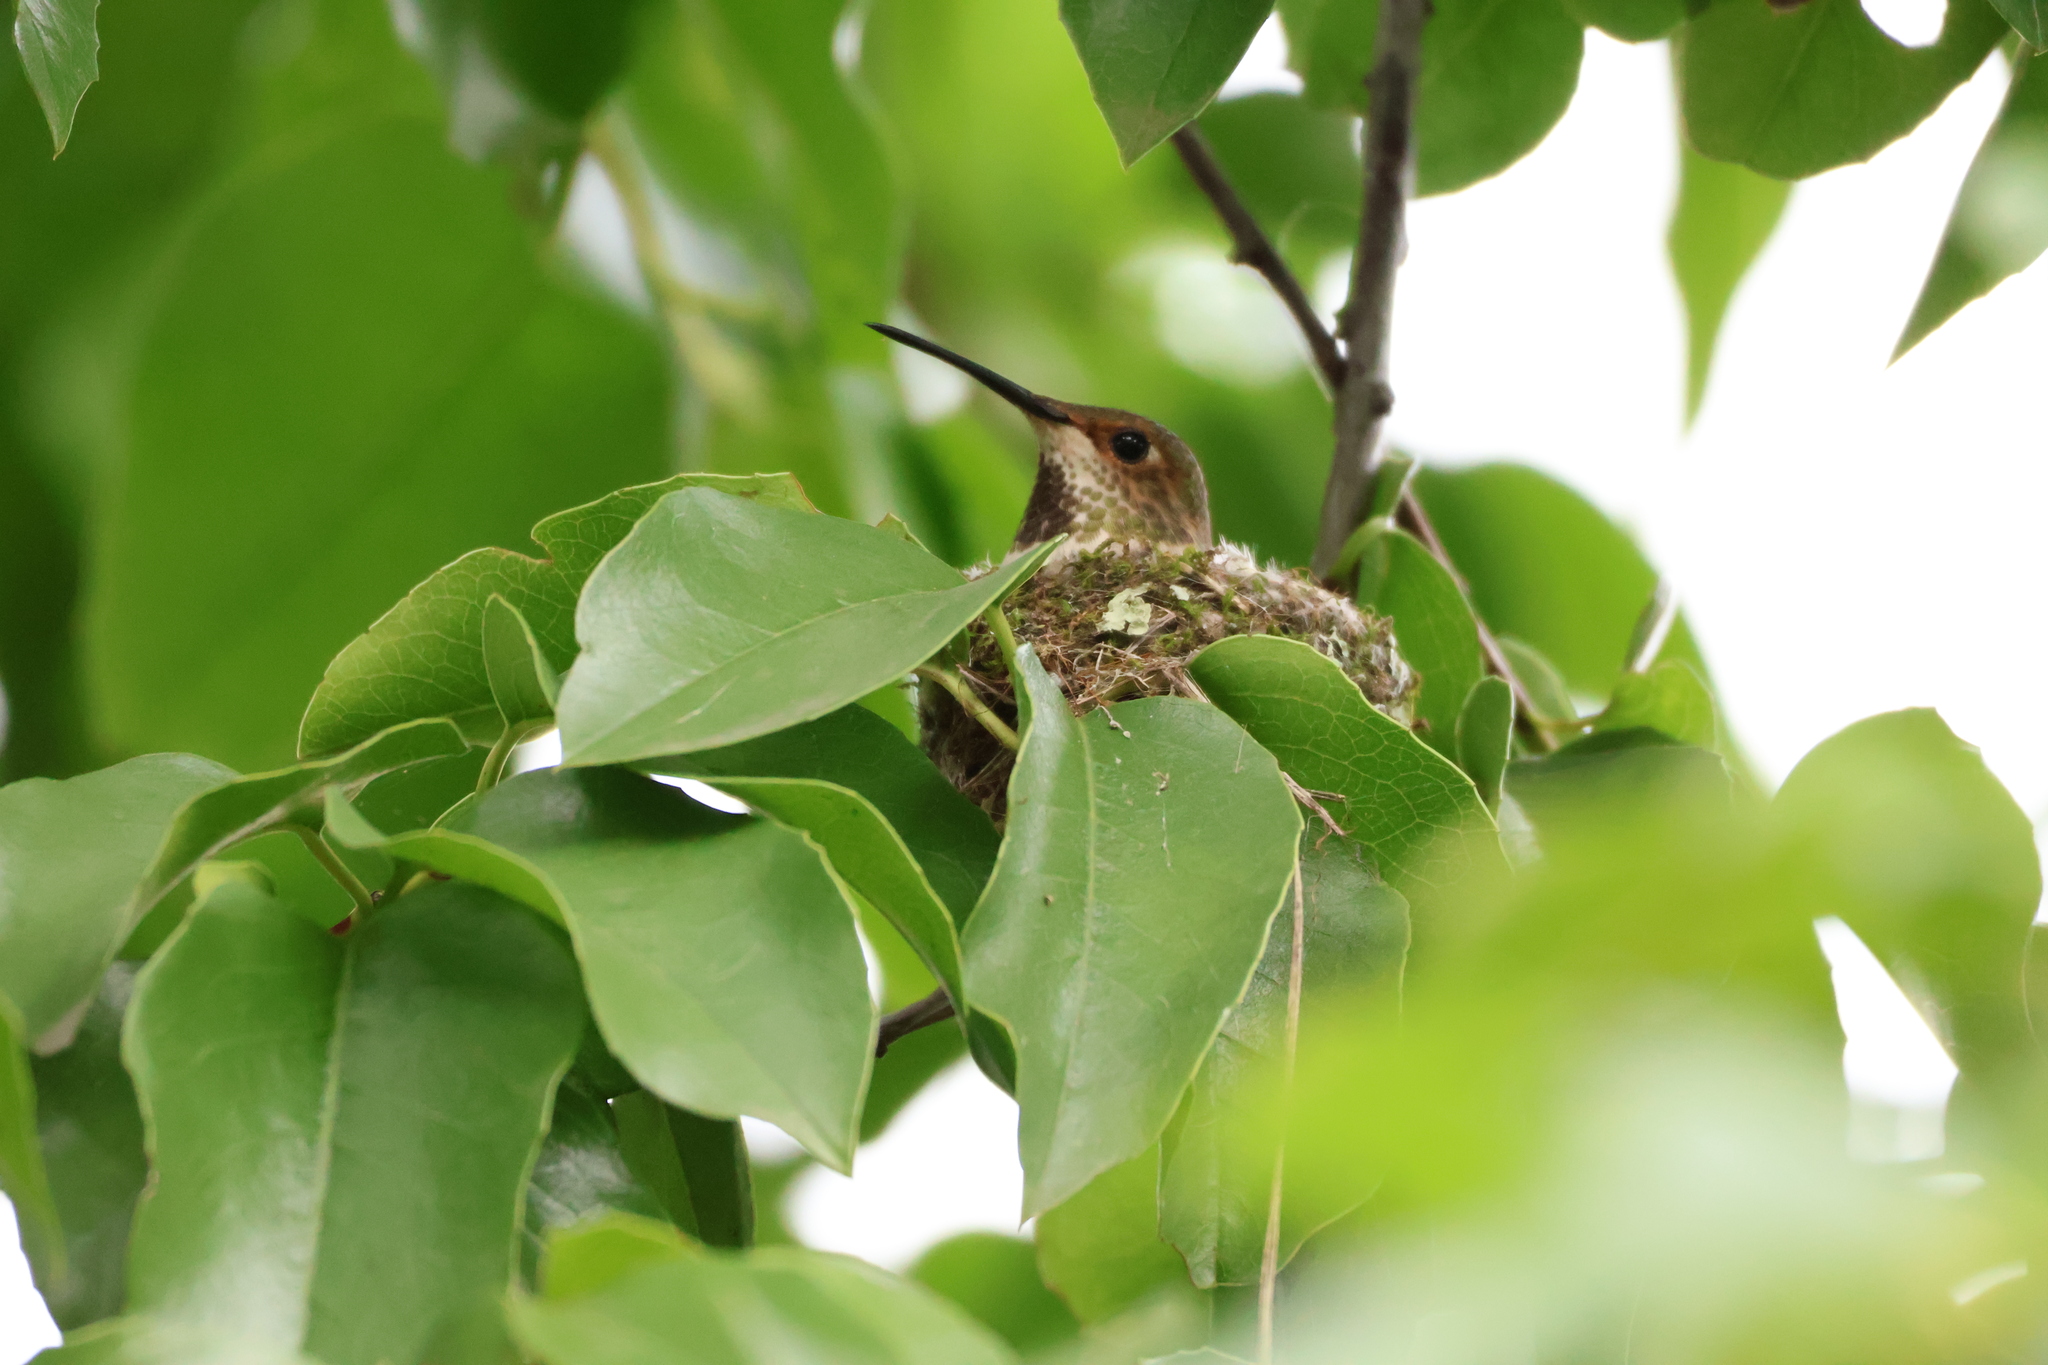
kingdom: Animalia
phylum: Chordata
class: Aves
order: Apodiformes
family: Trochilidae
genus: Selasphorus
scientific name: Selasphorus sasin
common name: Allen's hummingbird
